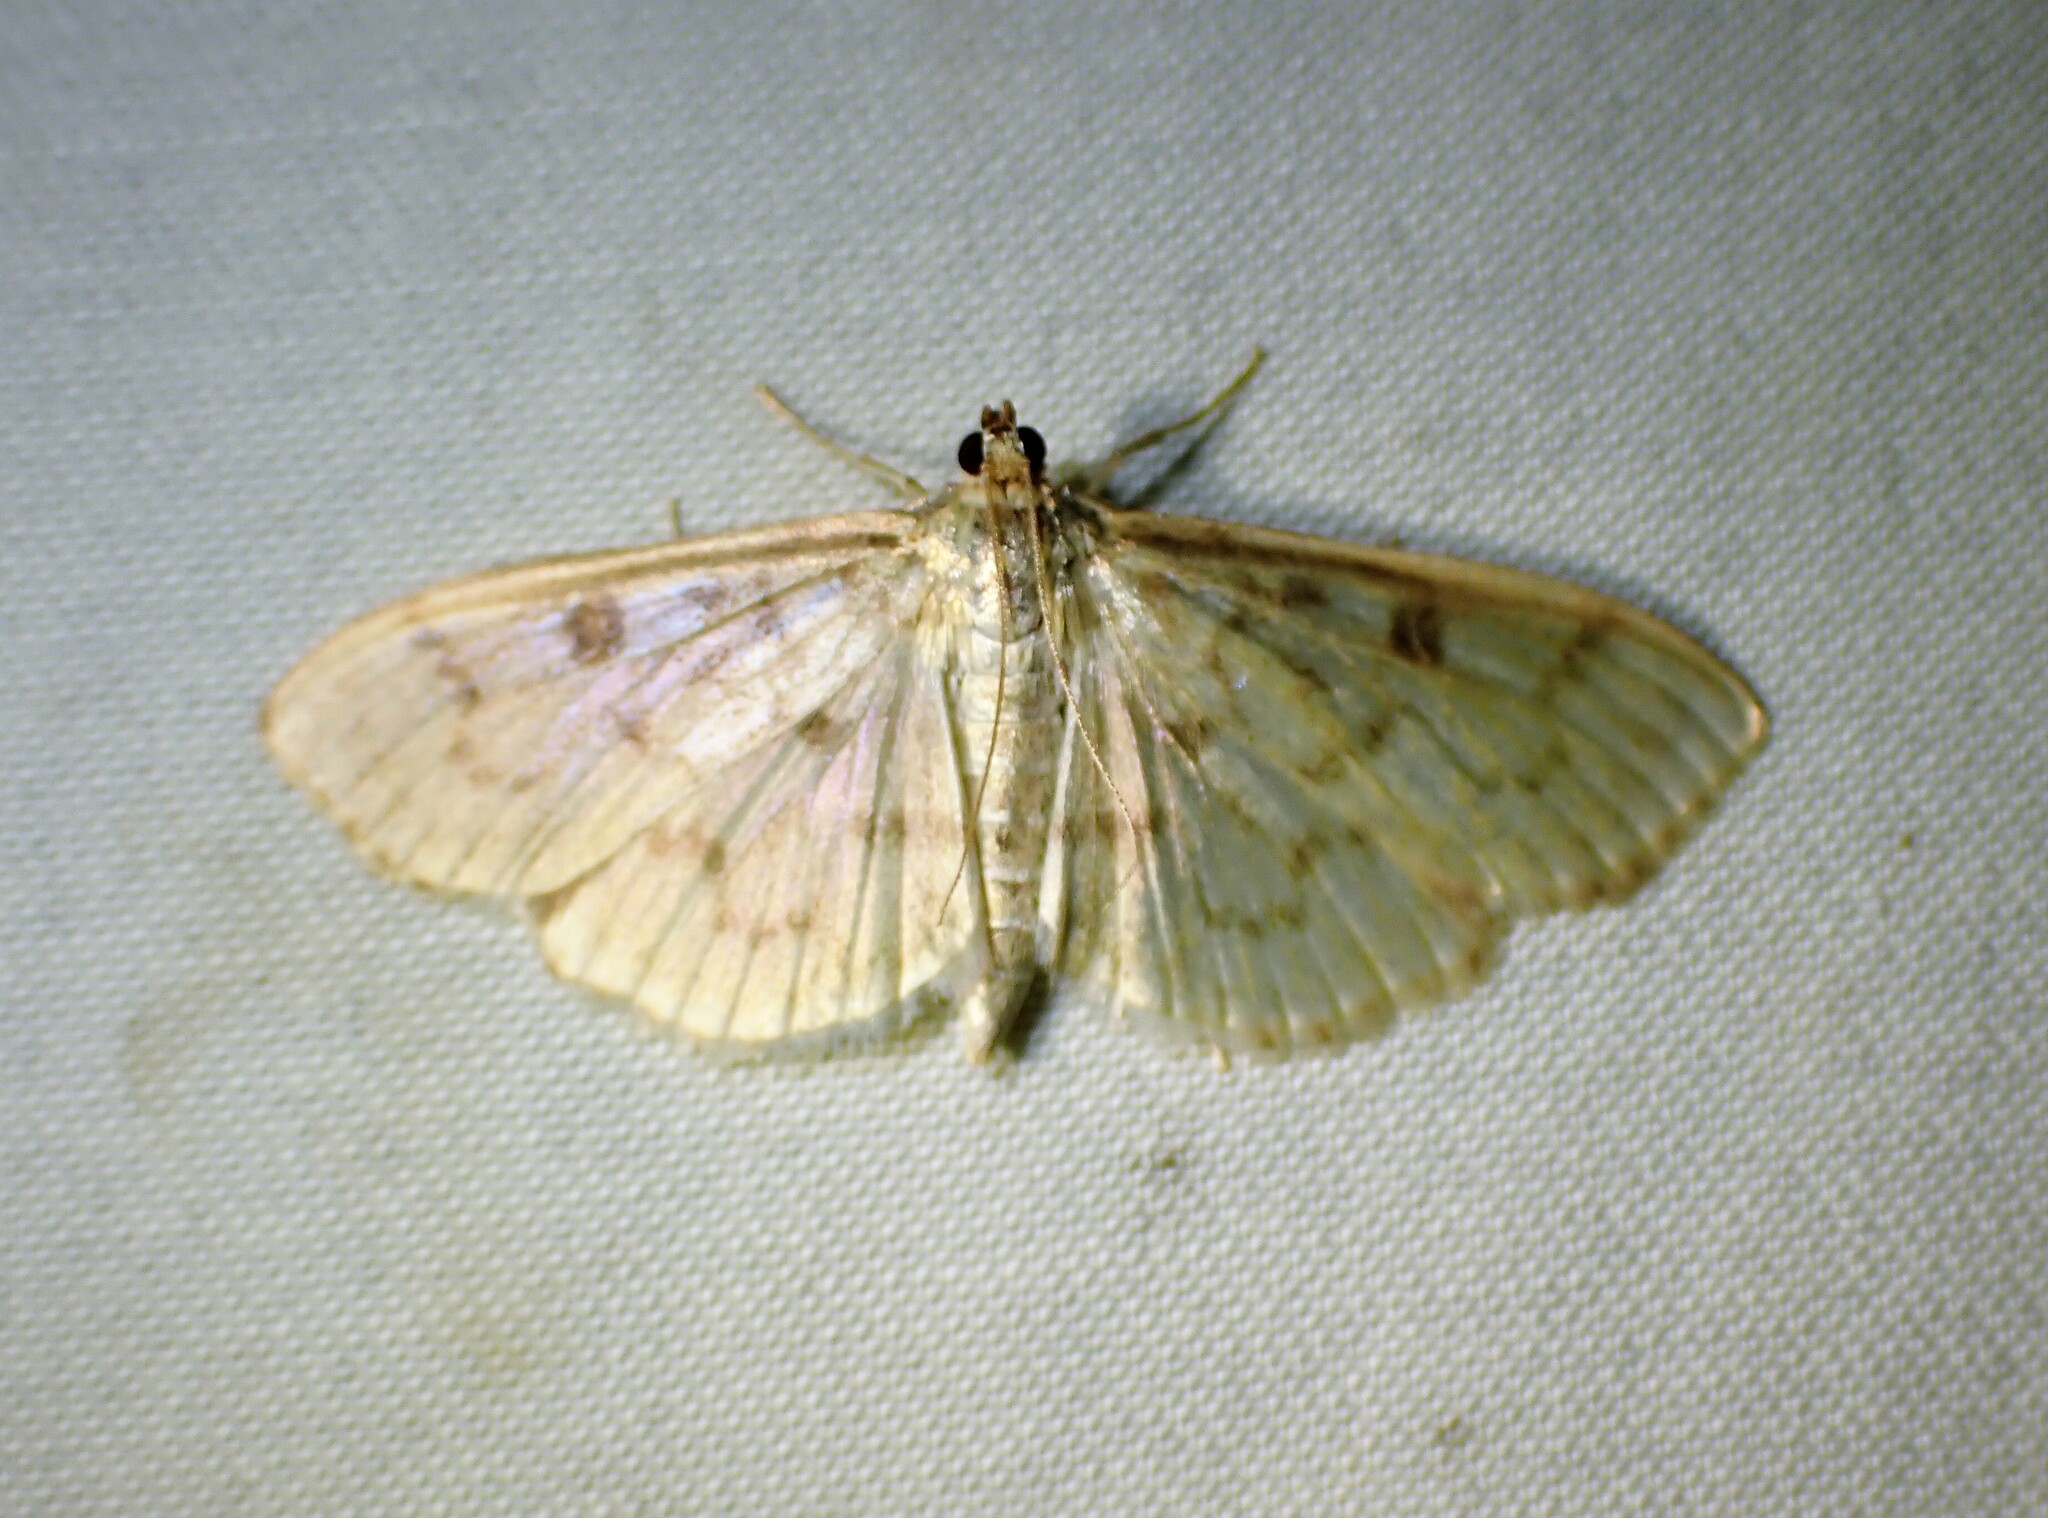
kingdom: Animalia
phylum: Arthropoda
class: Insecta
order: Lepidoptera
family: Crambidae
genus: Herpetogramma
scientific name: Herpetogramma aquilonalis
